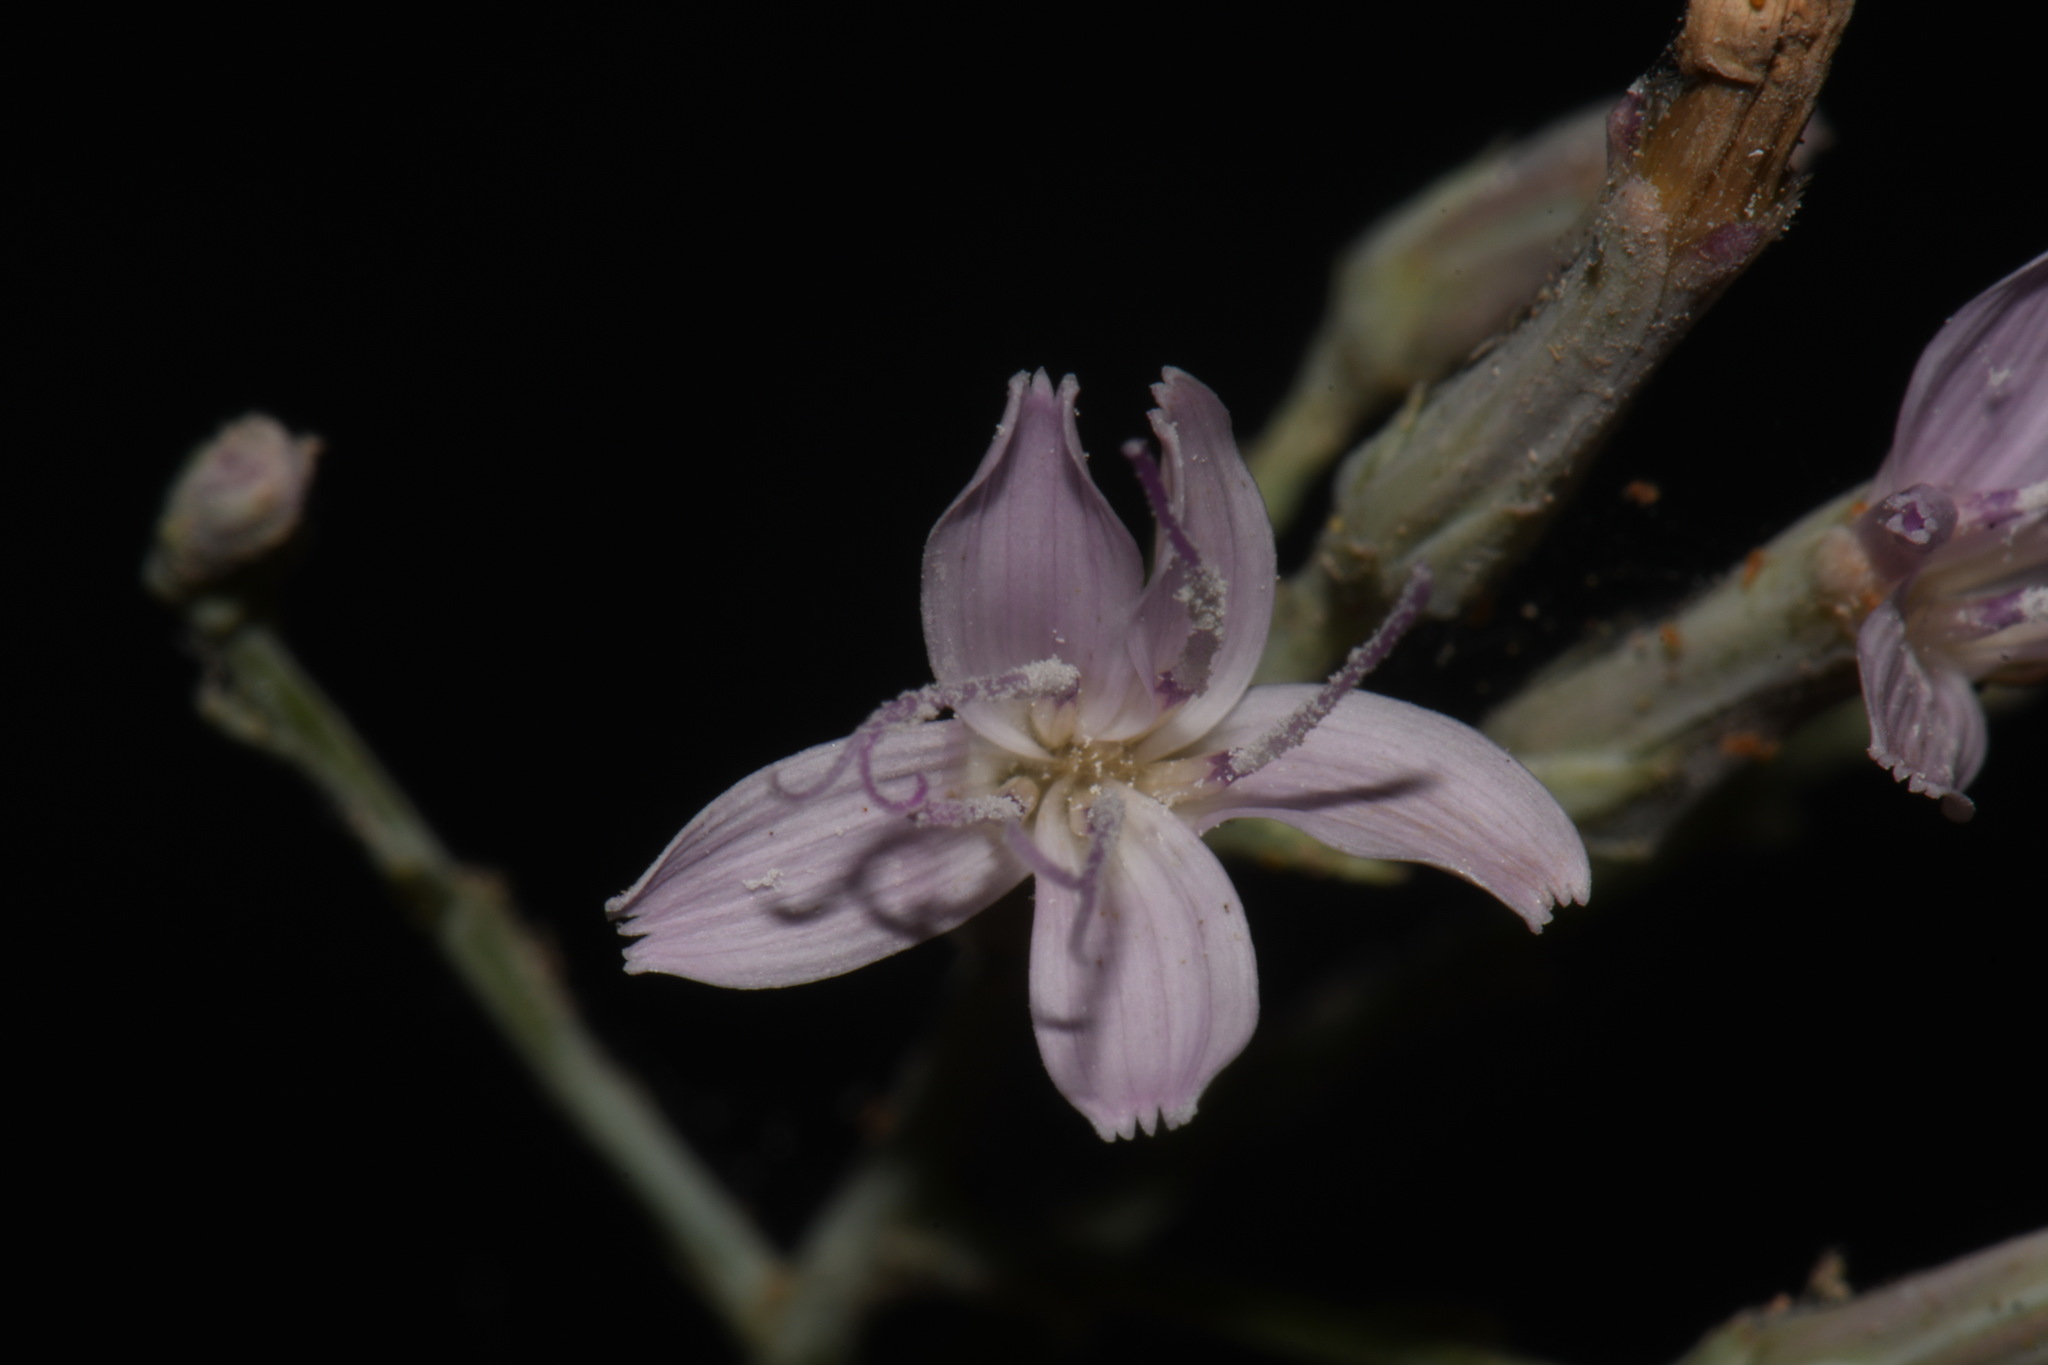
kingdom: Plantae
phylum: Tracheophyta
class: Magnoliopsida
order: Asterales
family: Asteraceae
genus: Stephanomeria
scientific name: Stephanomeria tenuifolia
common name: Slender wirelettuce
